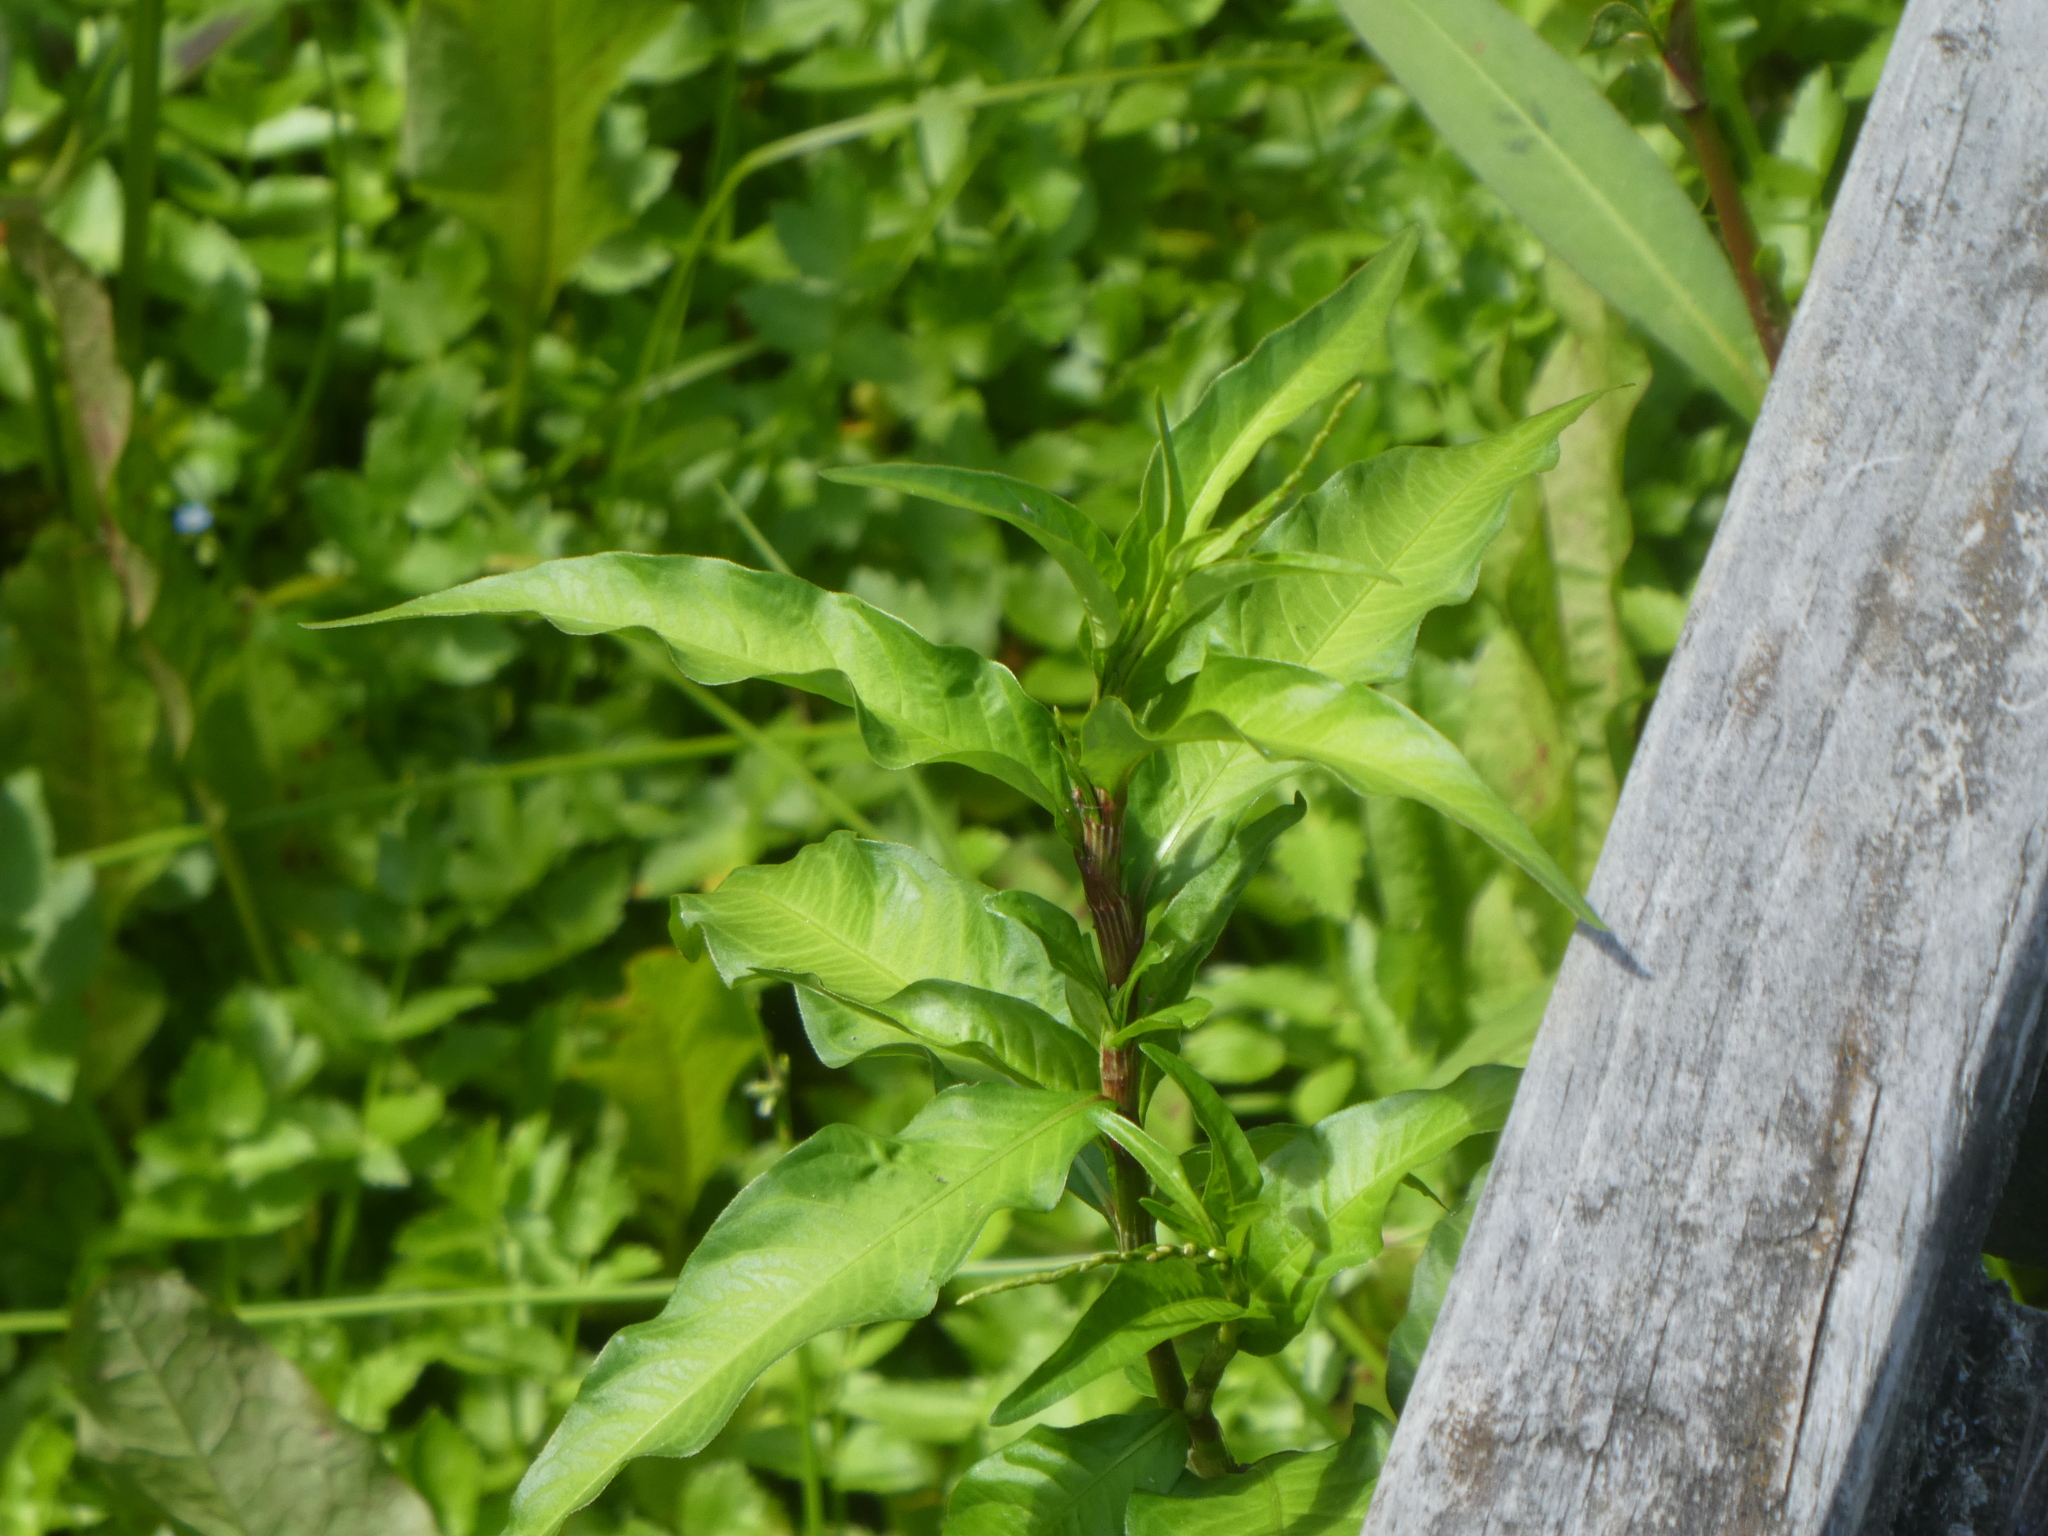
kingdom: Plantae
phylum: Tracheophyta
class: Magnoliopsida
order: Caryophyllales
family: Polygonaceae
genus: Persicaria
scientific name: Persicaria hydropiper
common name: Water-pepper
